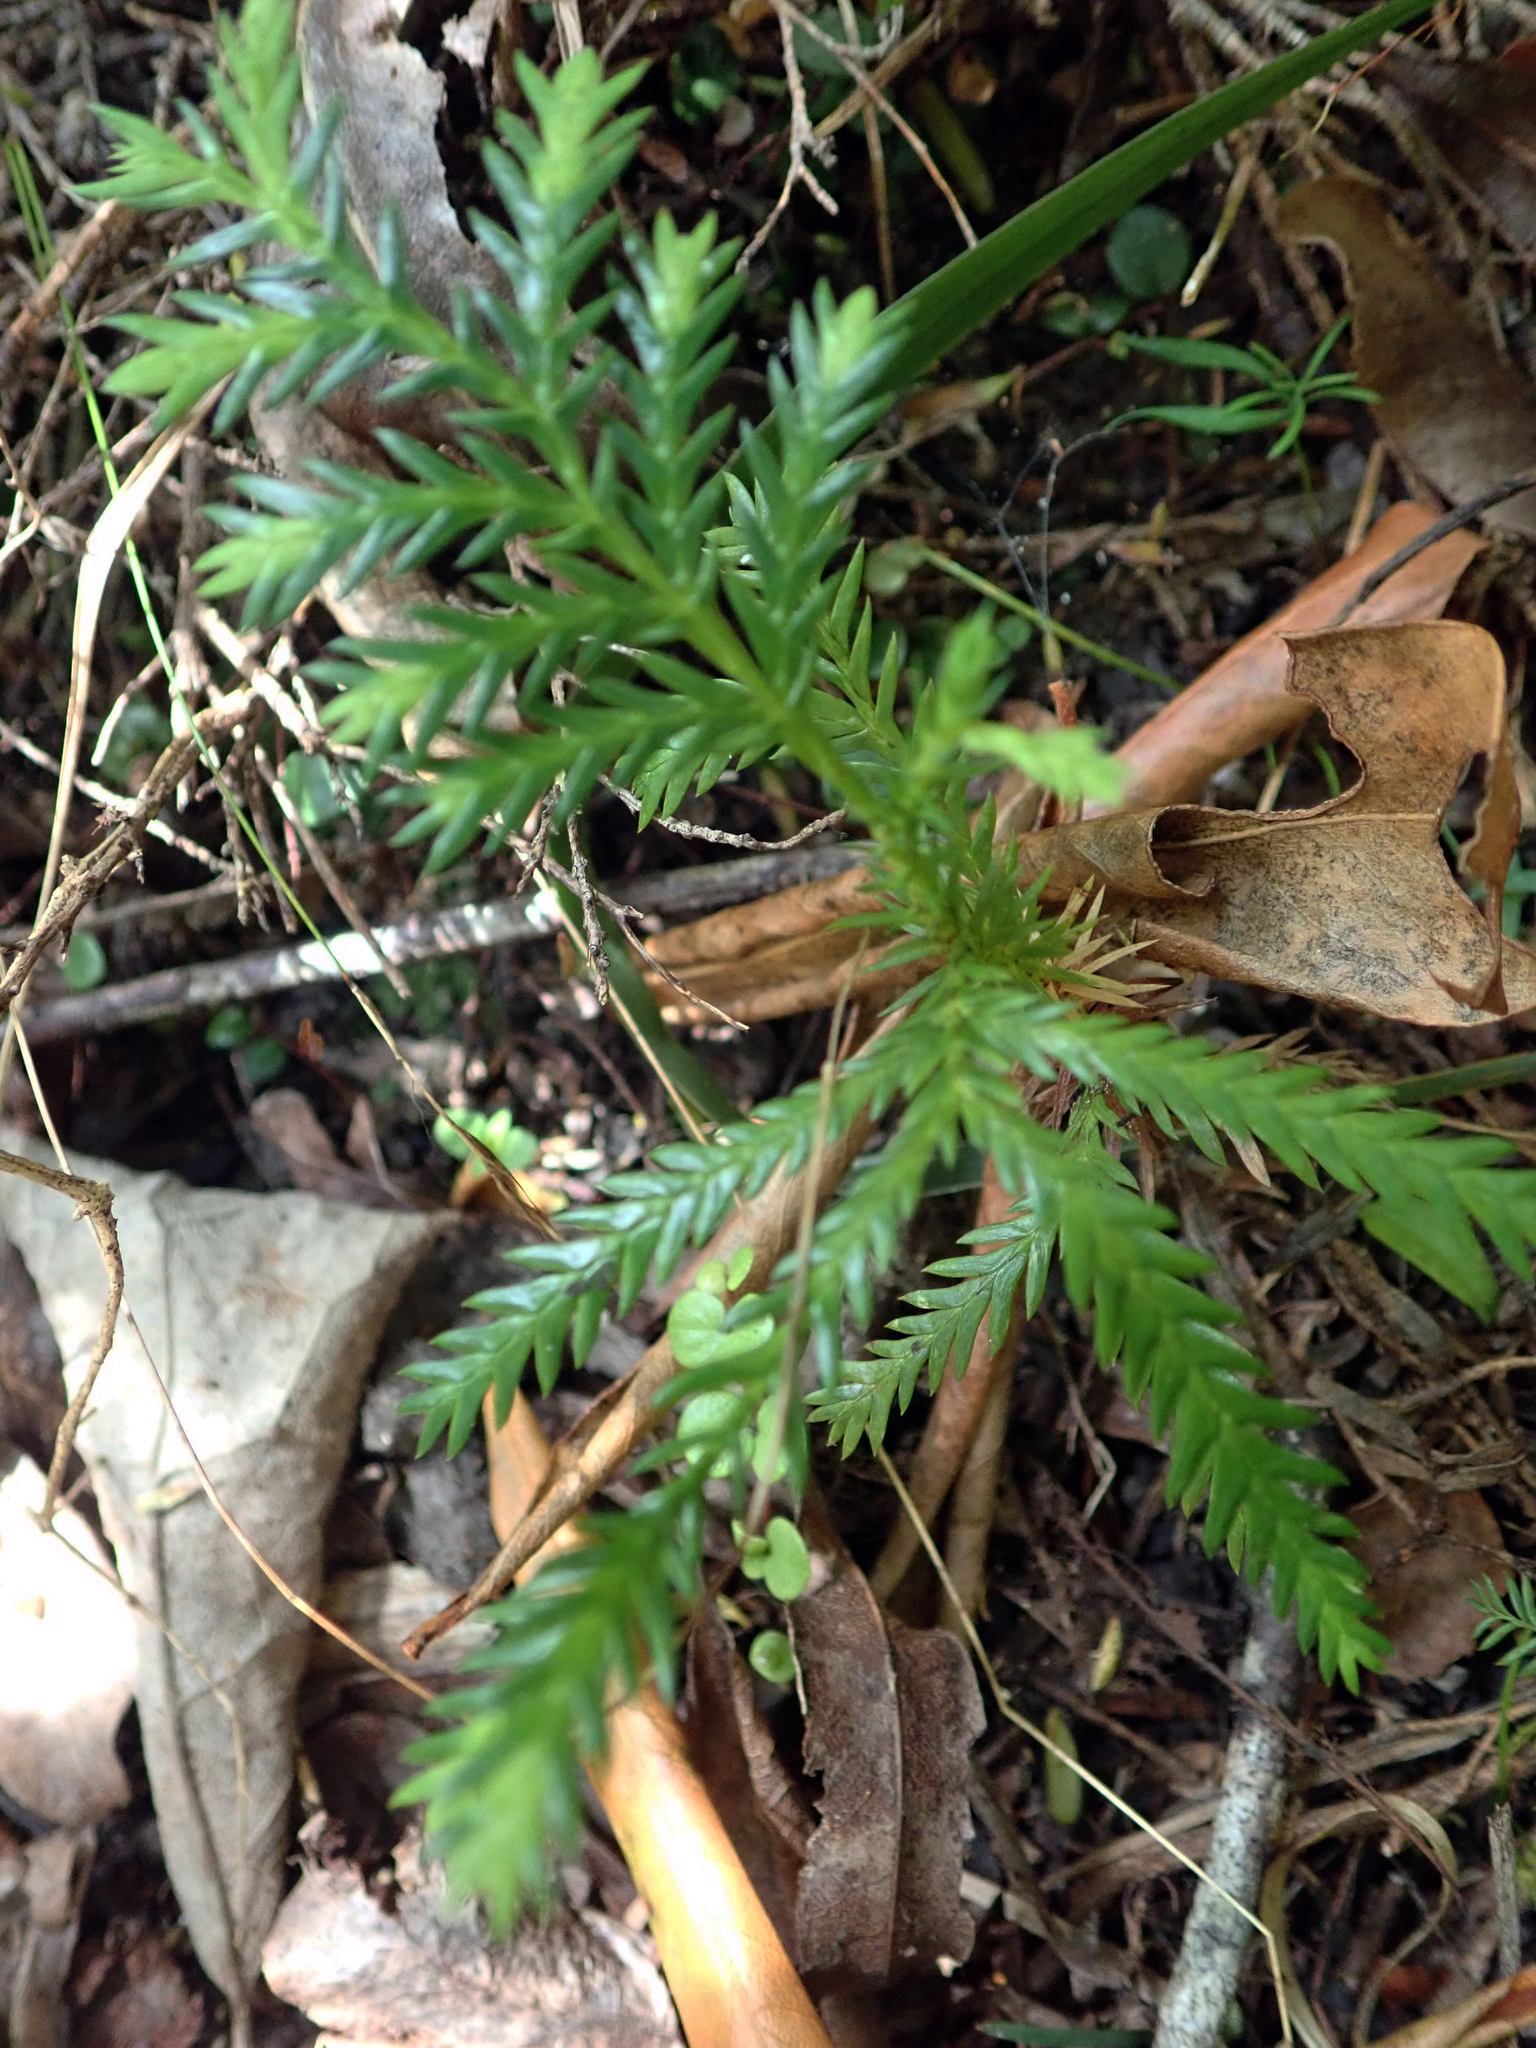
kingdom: Plantae
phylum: Tracheophyta
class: Pinopsida
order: Pinales
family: Cupressaceae
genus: Libocedrus
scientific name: Libocedrus plumosa
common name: New zealand cedar
